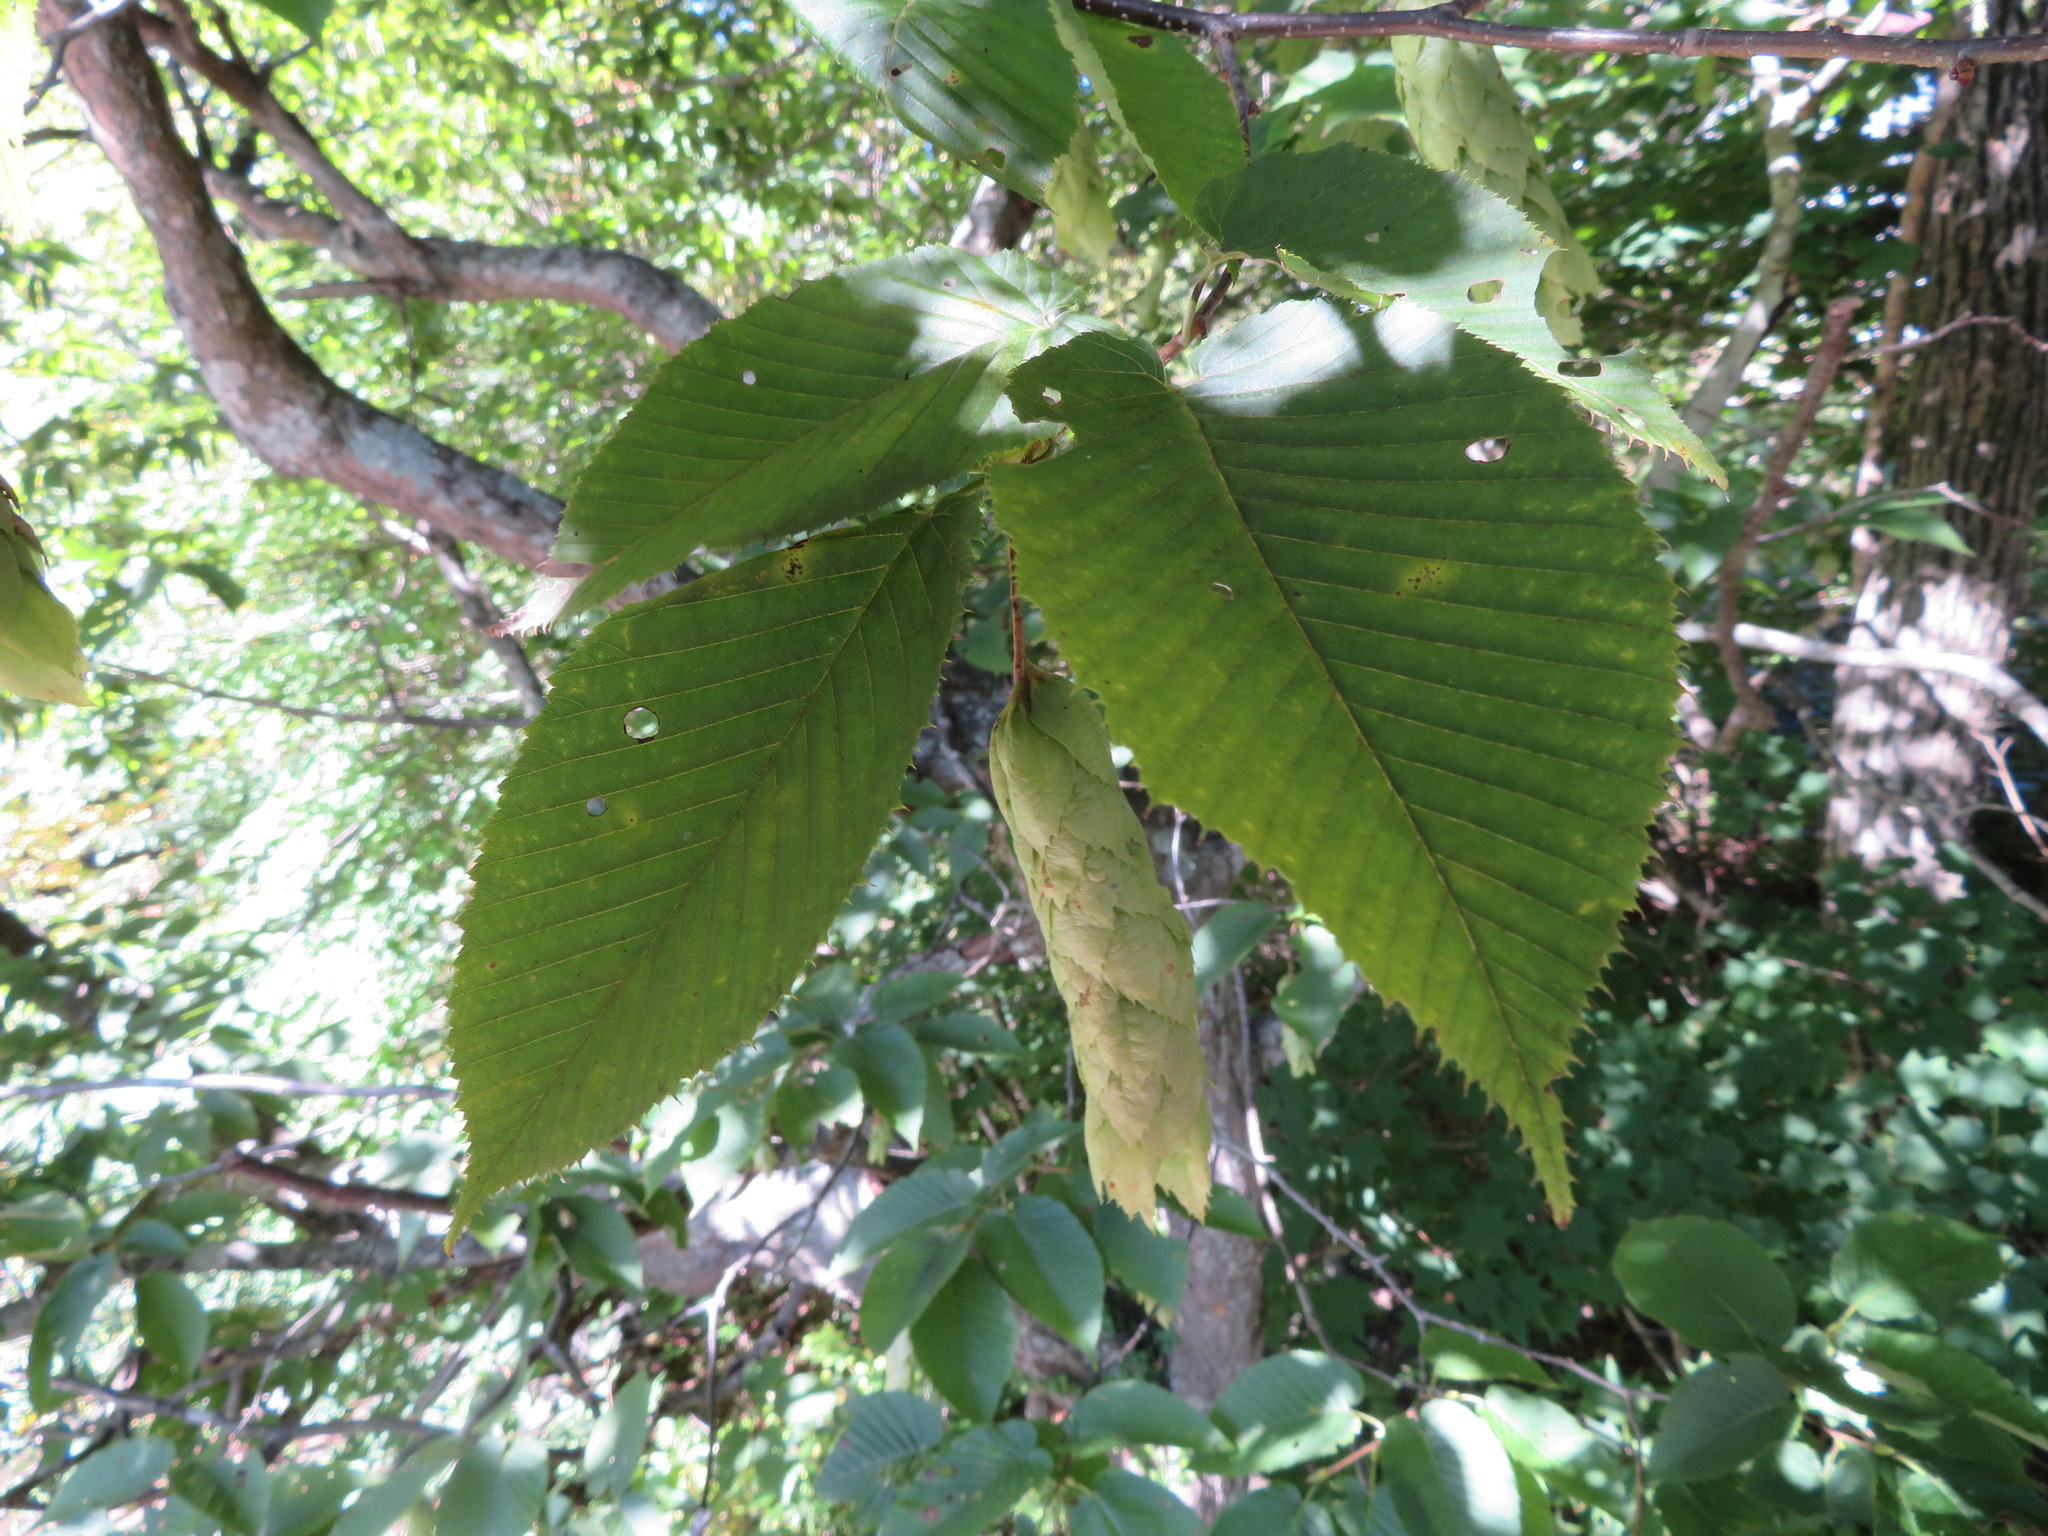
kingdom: Plantae
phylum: Tracheophyta
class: Magnoliopsida
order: Fagales
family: Betulaceae
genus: Carpinus
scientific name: Carpinus cordata
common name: Sawa hornbeam
